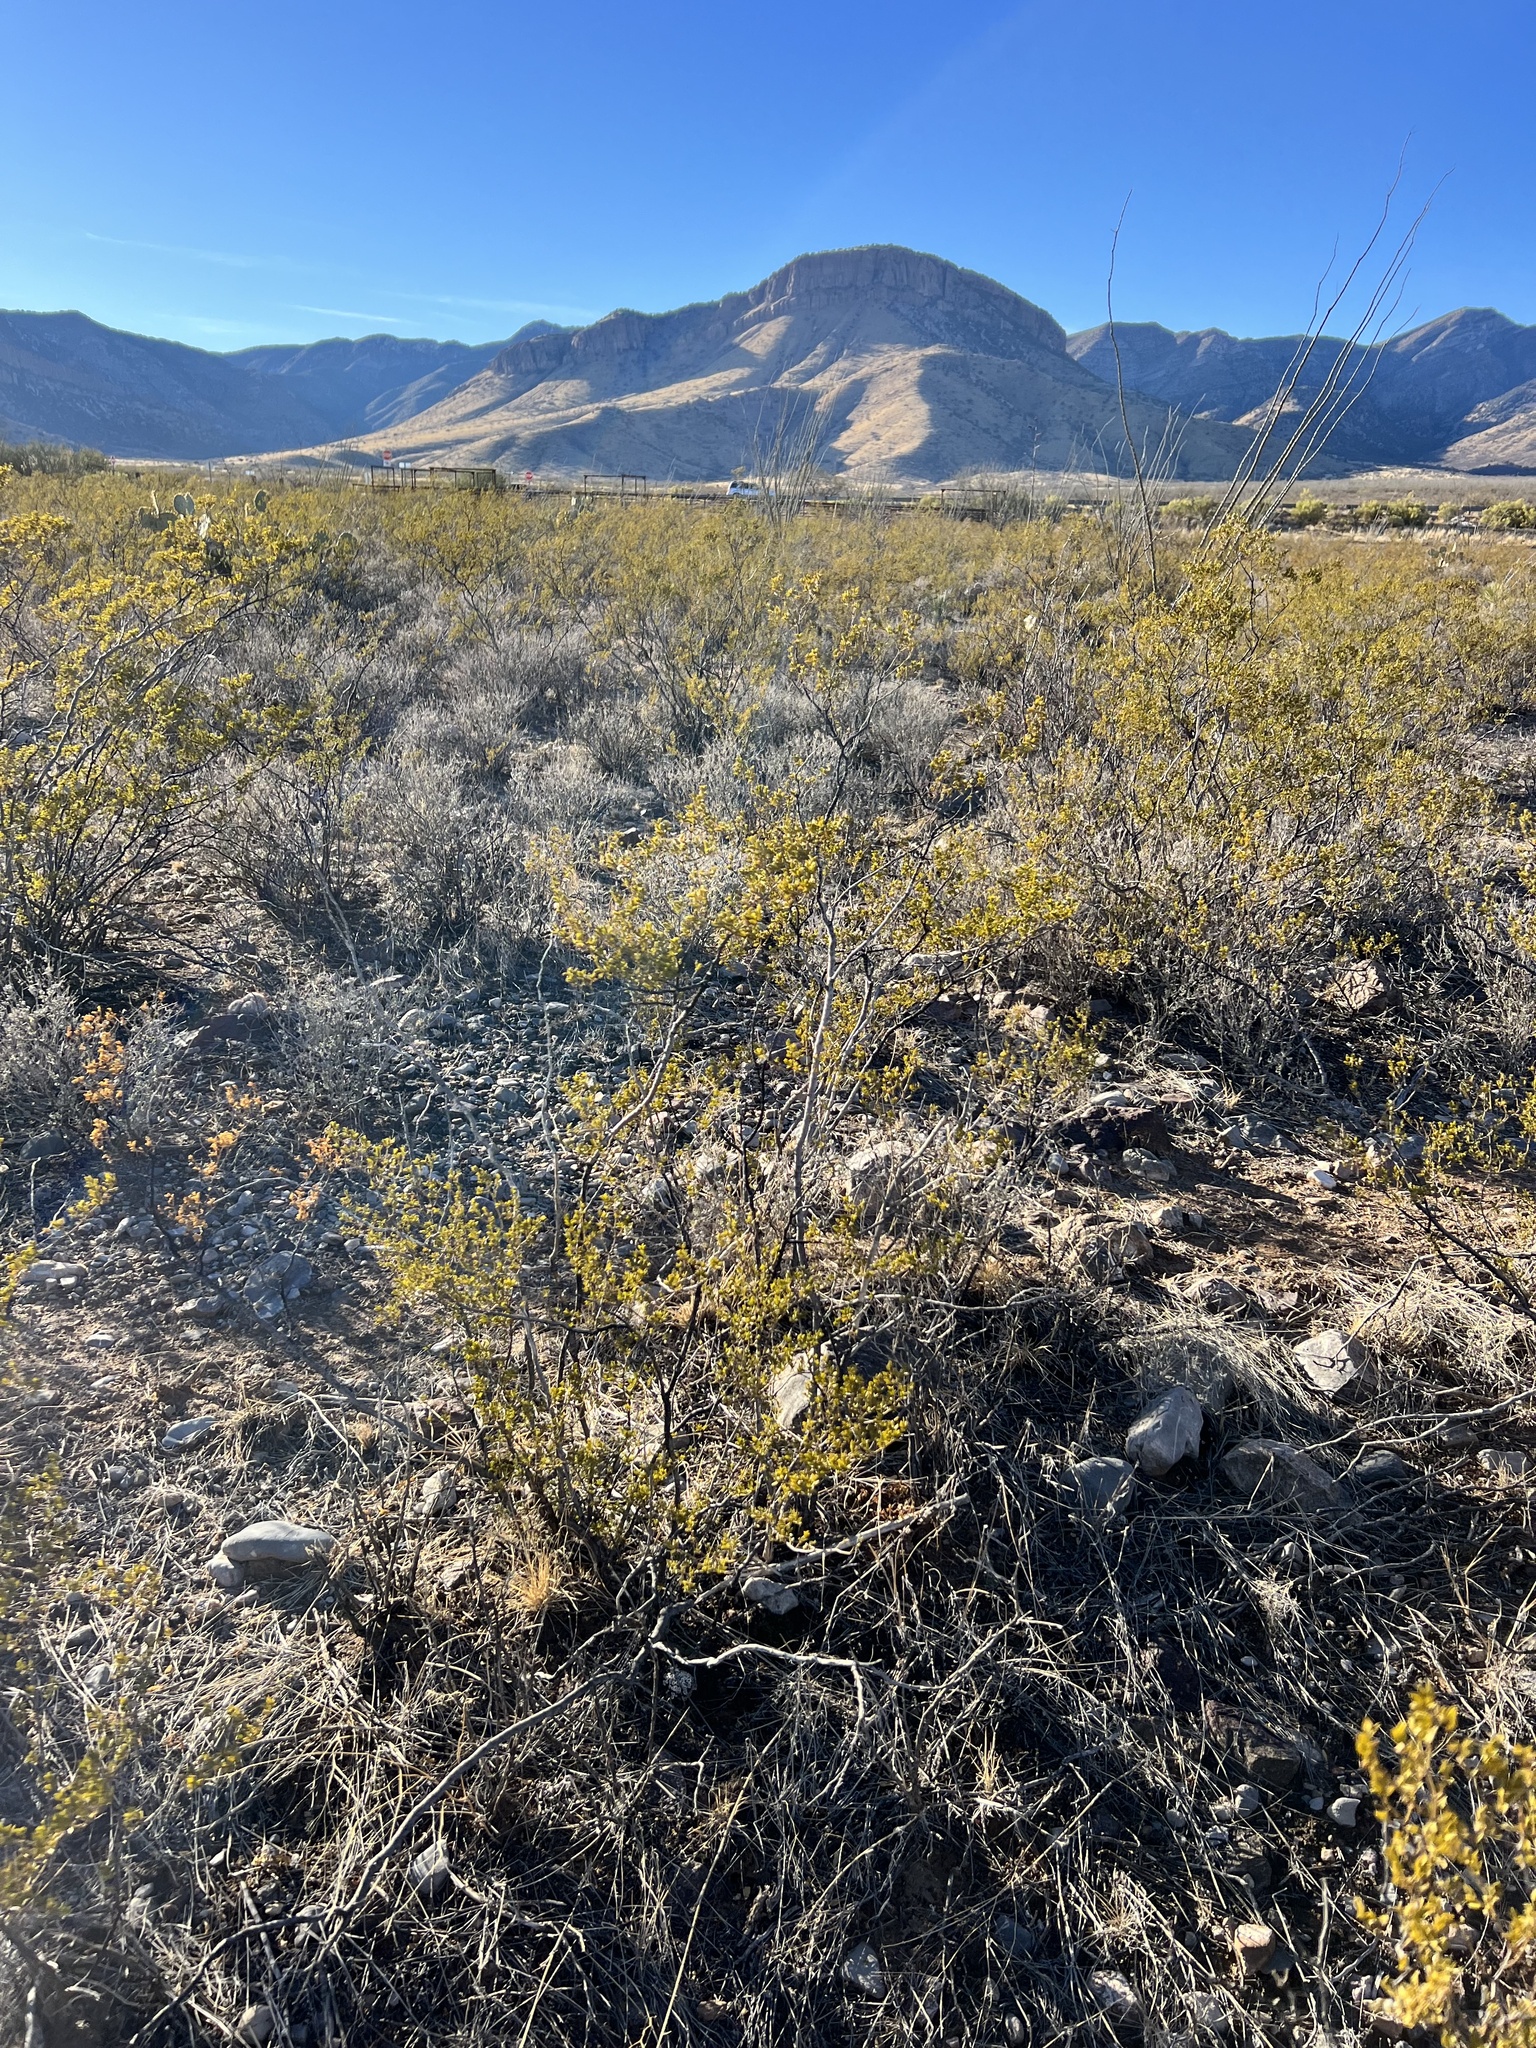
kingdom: Plantae
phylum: Tracheophyta
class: Magnoliopsida
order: Zygophyllales
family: Zygophyllaceae
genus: Larrea
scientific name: Larrea tridentata
